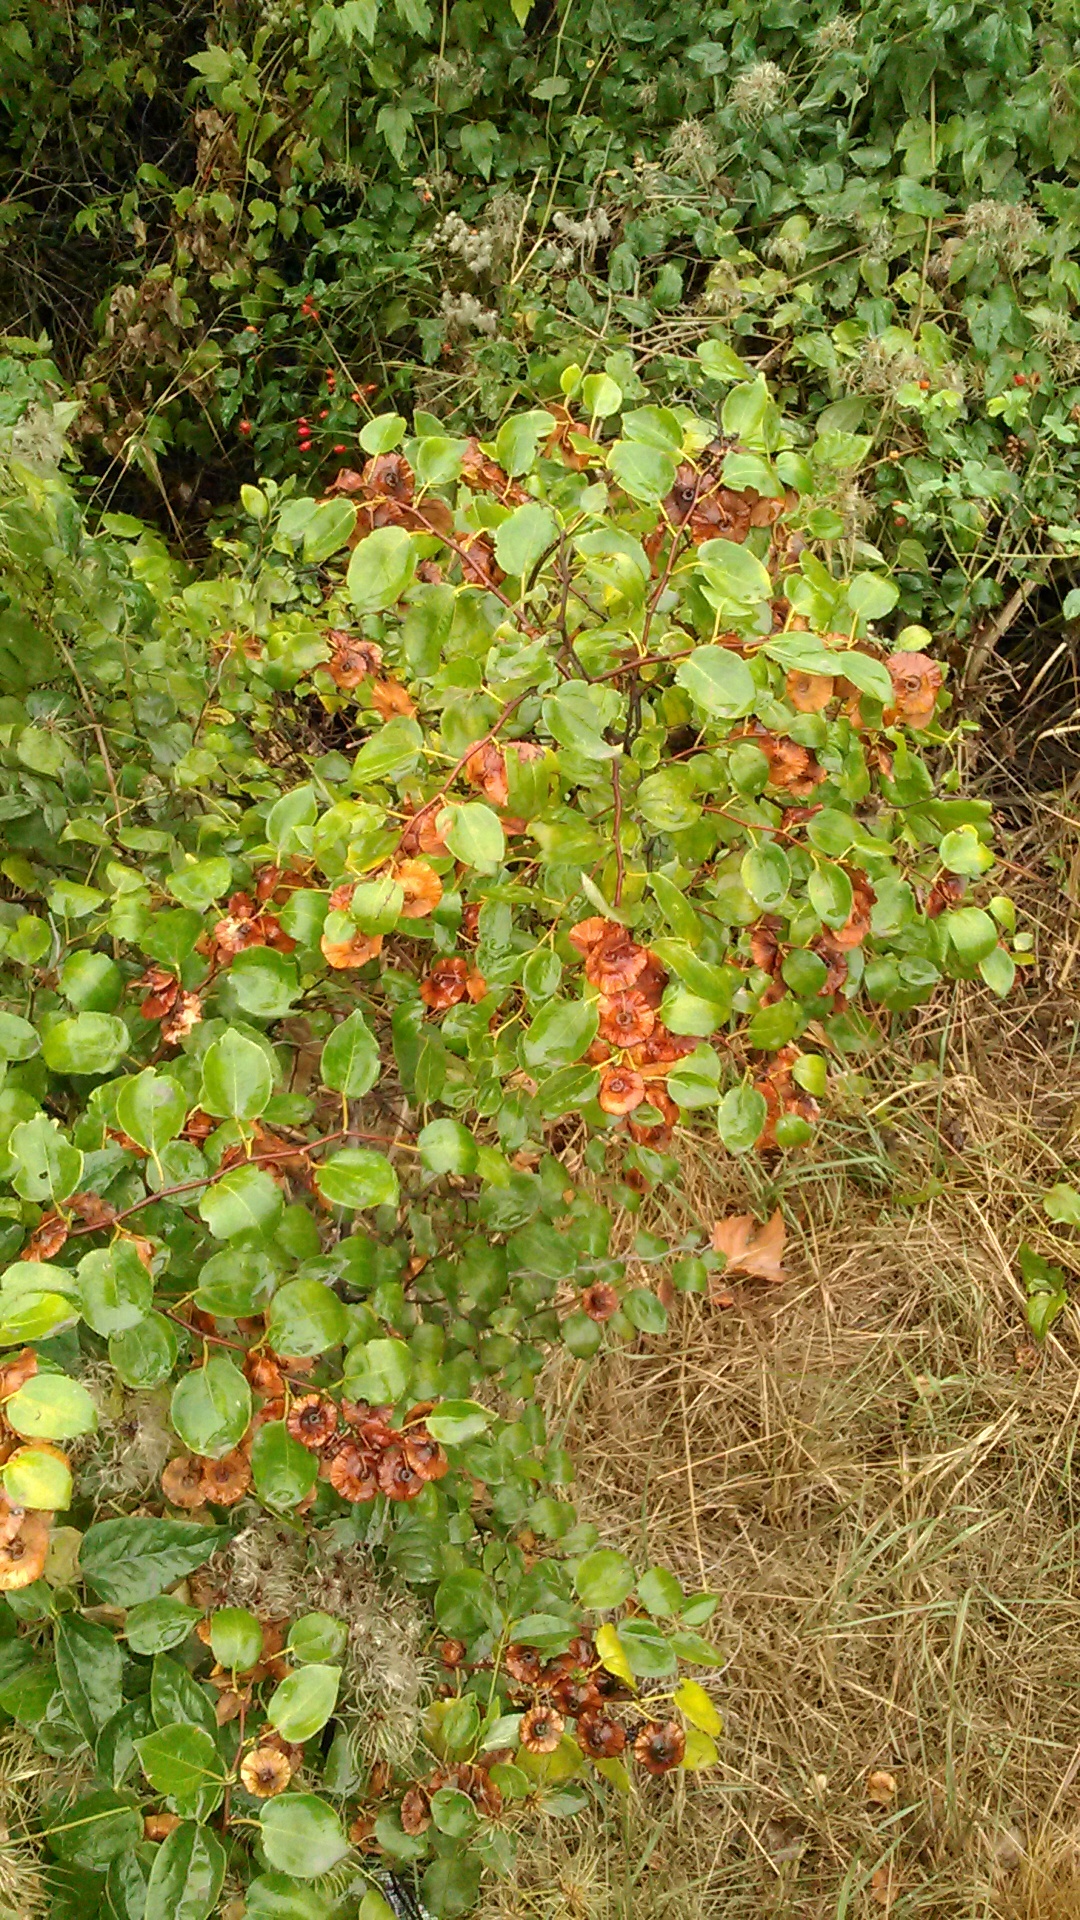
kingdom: Plantae
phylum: Tracheophyta
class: Magnoliopsida
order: Rosales
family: Rhamnaceae
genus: Paliurus
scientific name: Paliurus spina-christi
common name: Jeruselem thorn
